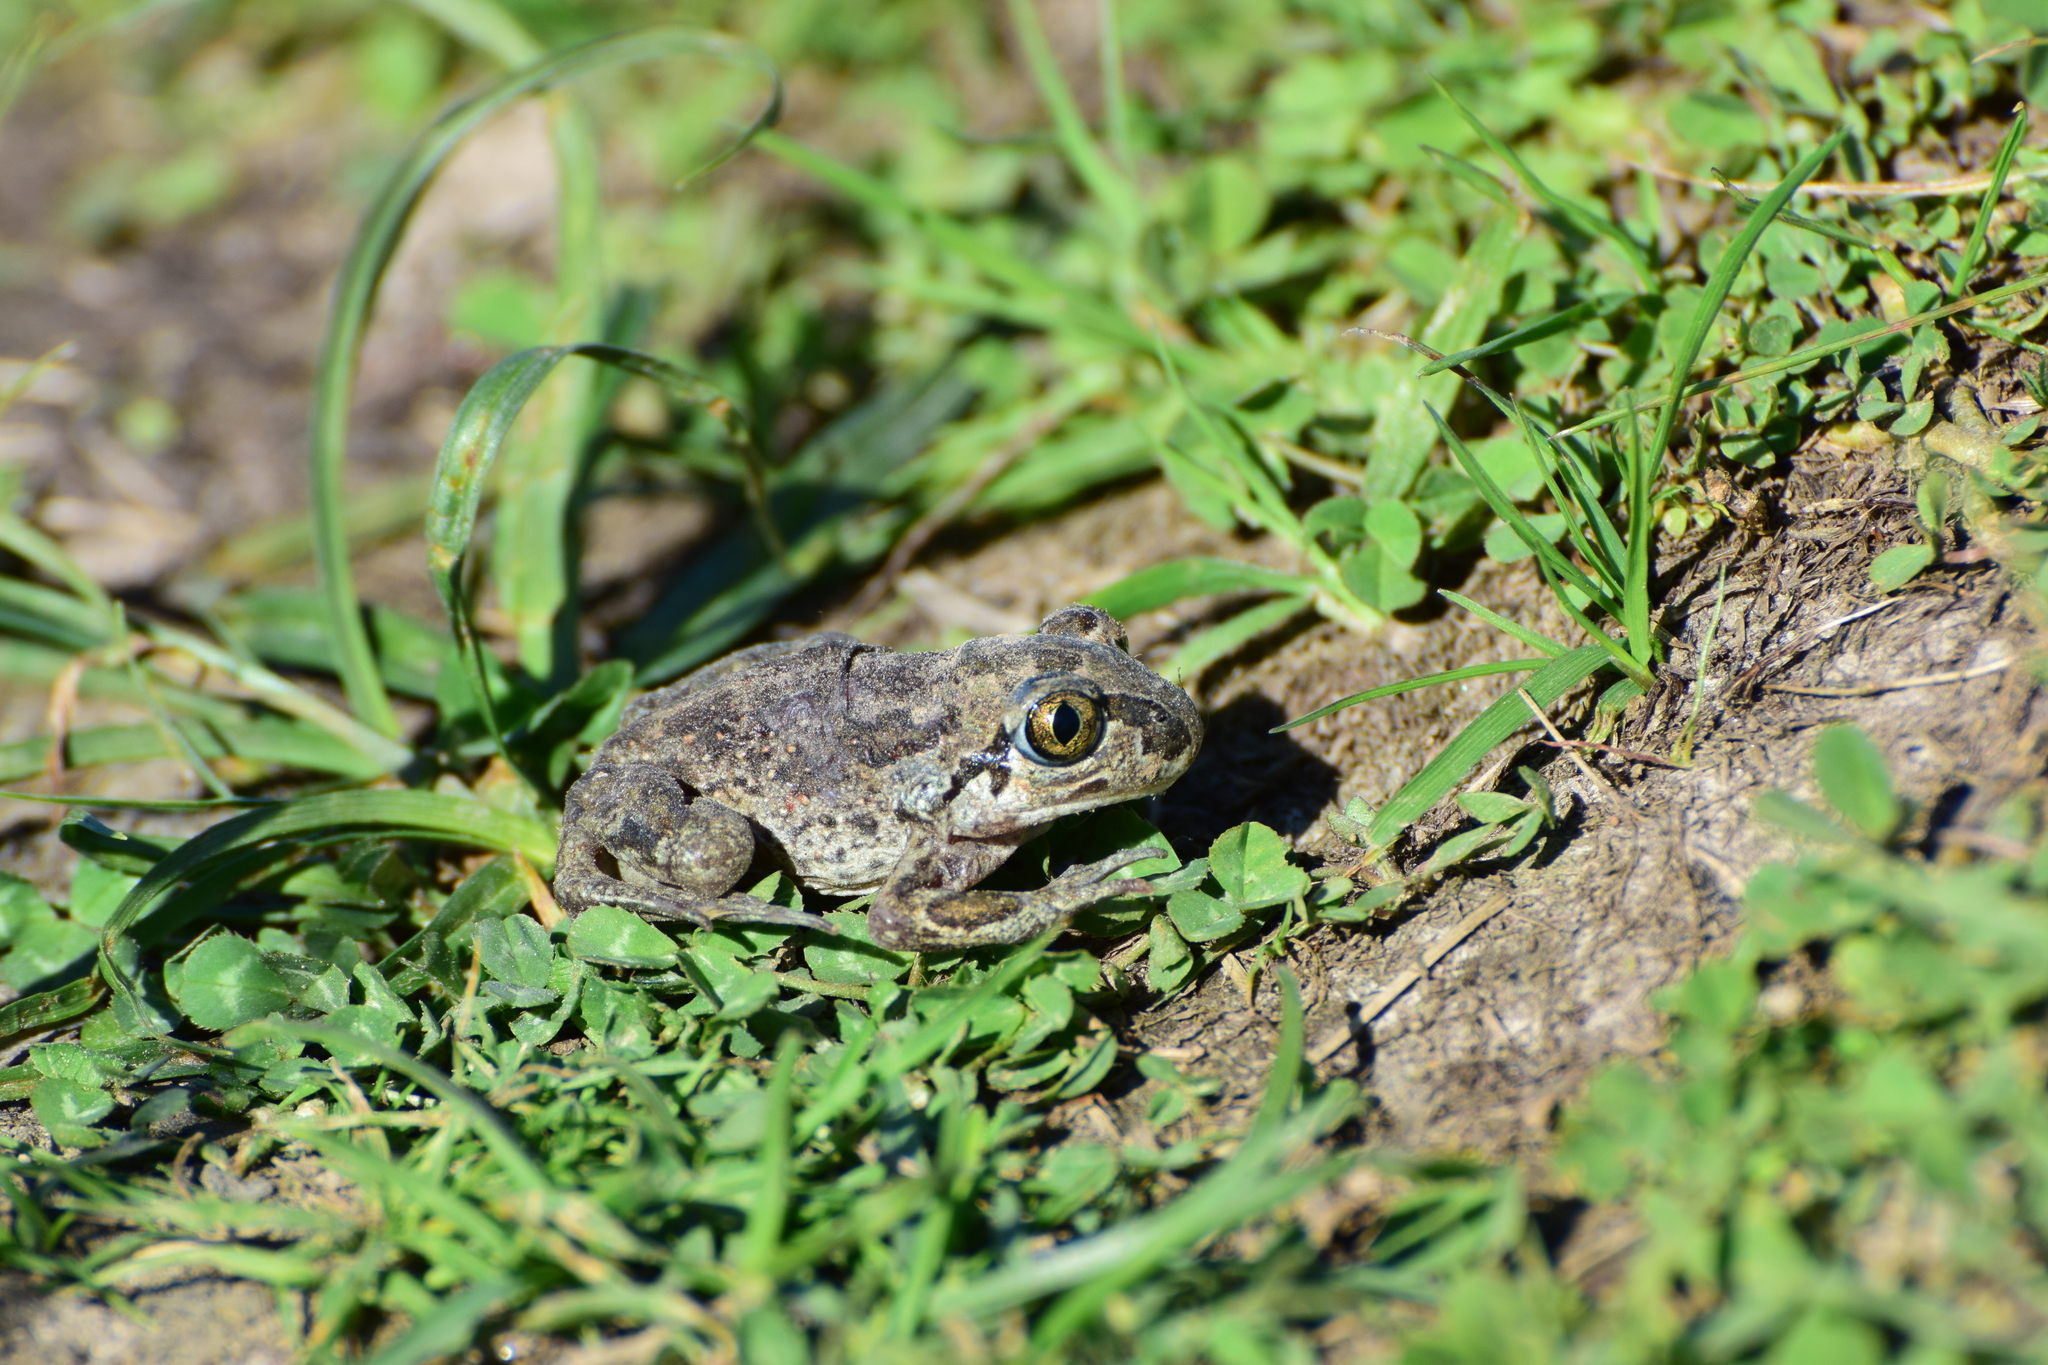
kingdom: Animalia
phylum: Chordata
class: Amphibia
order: Anura
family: Pelobatidae
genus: Pelobates
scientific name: Pelobates fuscus
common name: Common eurasian spadefoot toad
